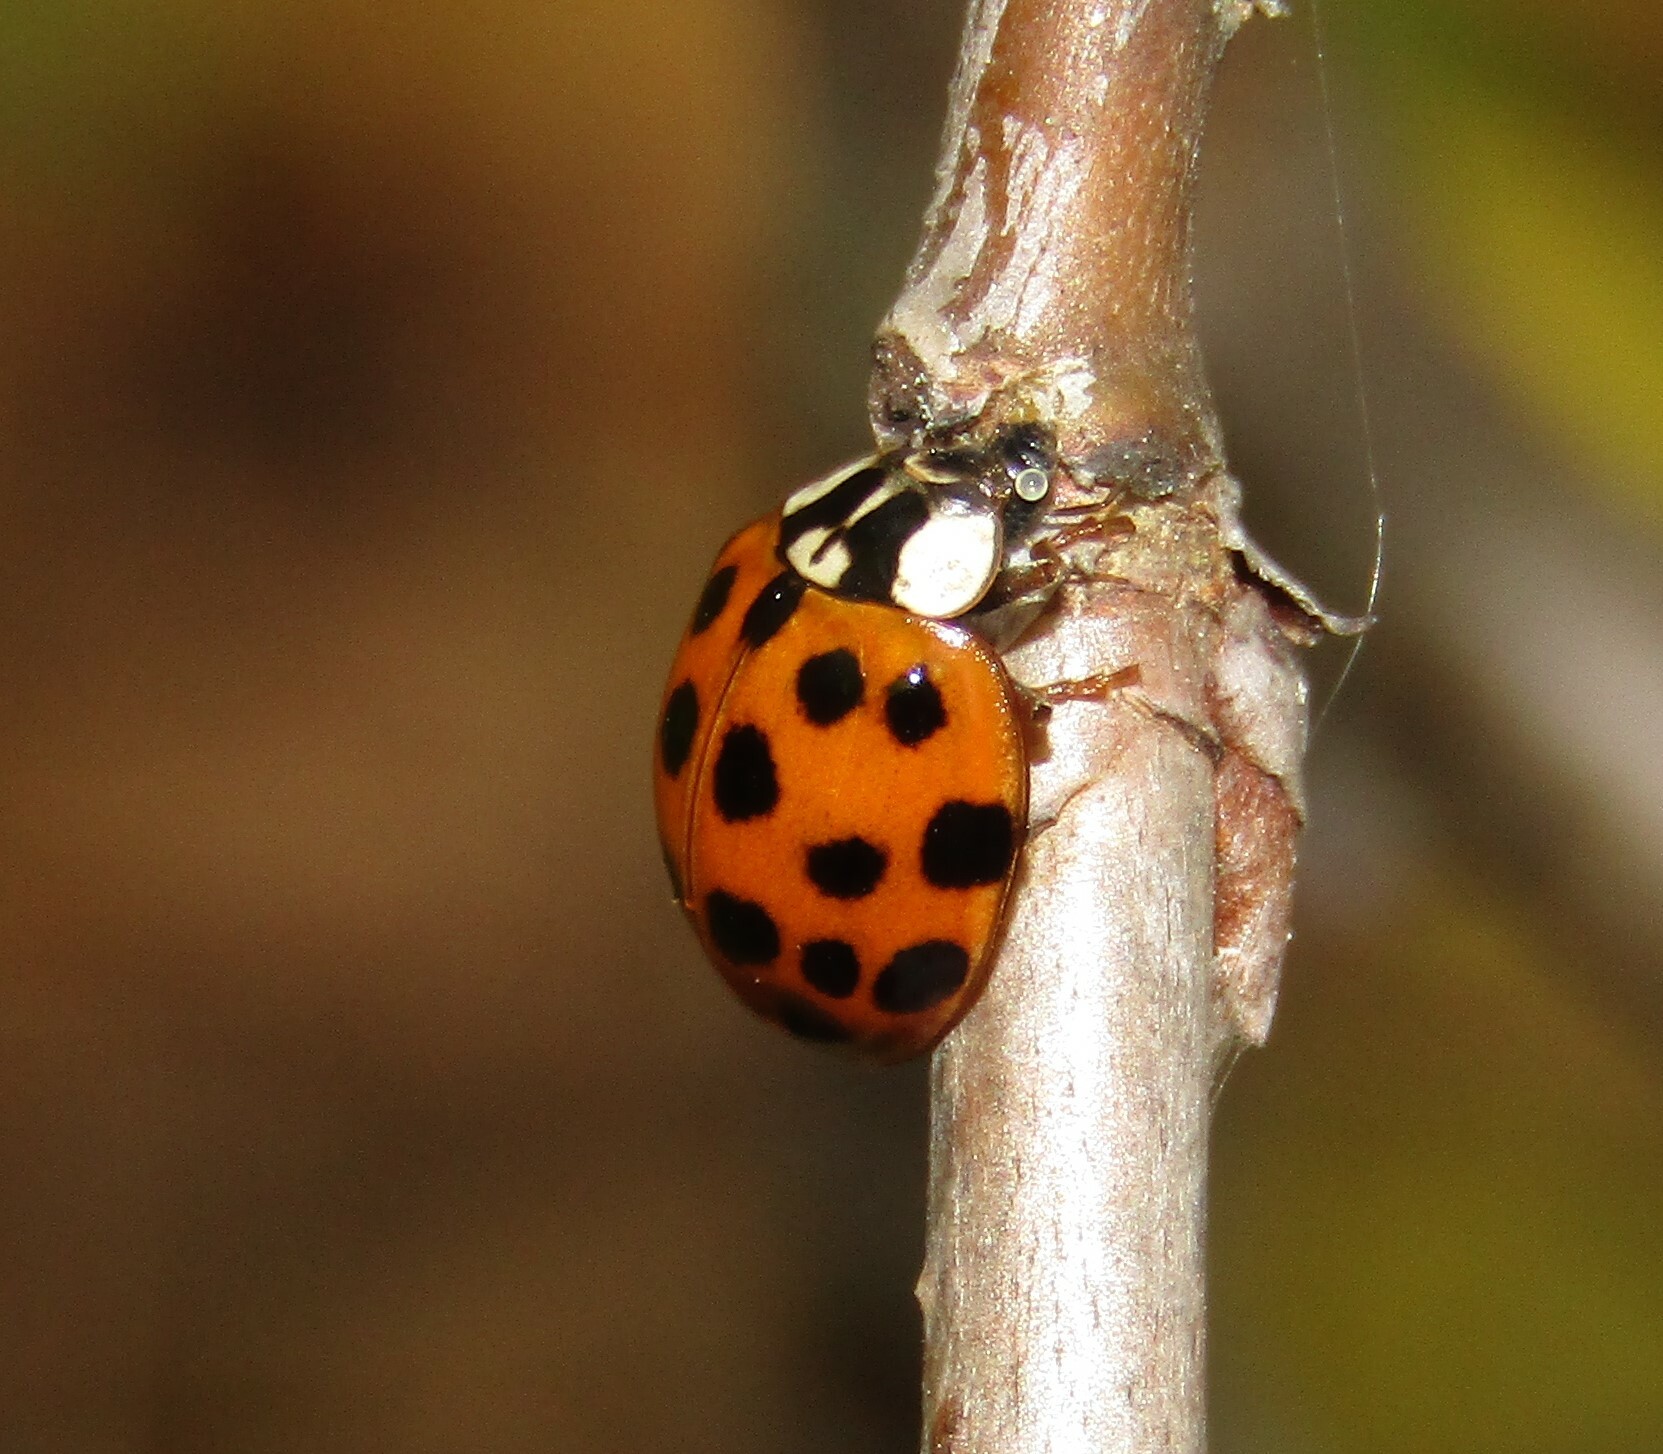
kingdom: Animalia
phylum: Arthropoda
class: Insecta
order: Coleoptera
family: Coccinellidae
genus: Harmonia
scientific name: Harmonia axyridis
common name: Harlequin ladybird
